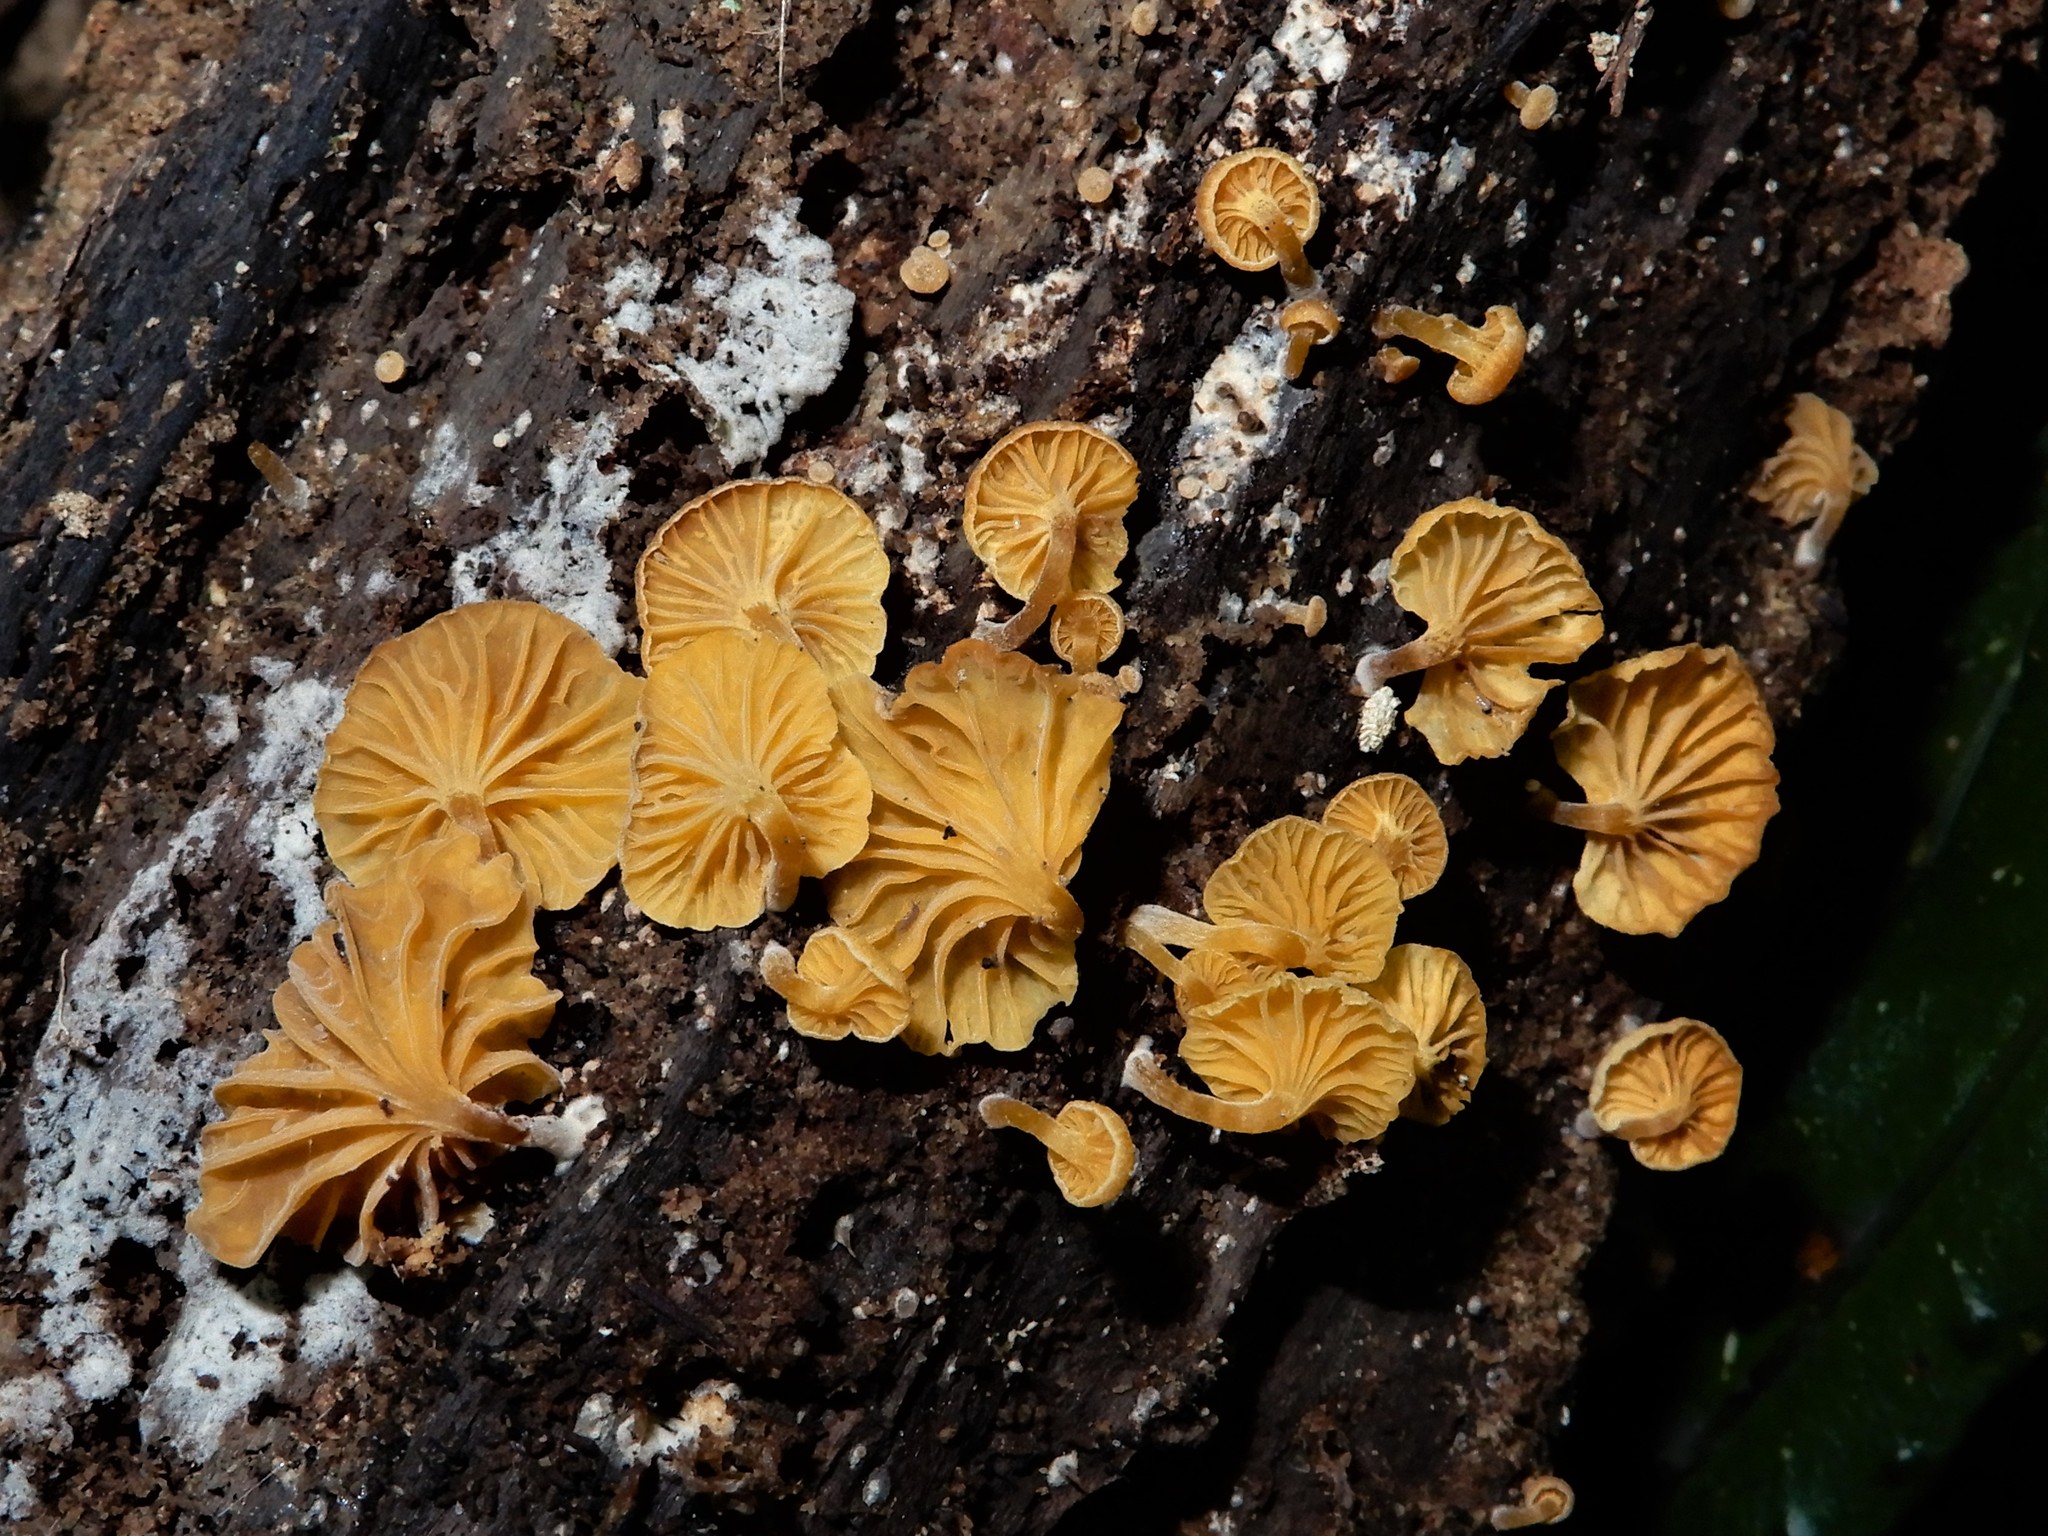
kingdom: Fungi
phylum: Basidiomycota
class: Agaricomycetes
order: Agaricales
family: Marasmiaceae
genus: Gerronema
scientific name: Gerronema
